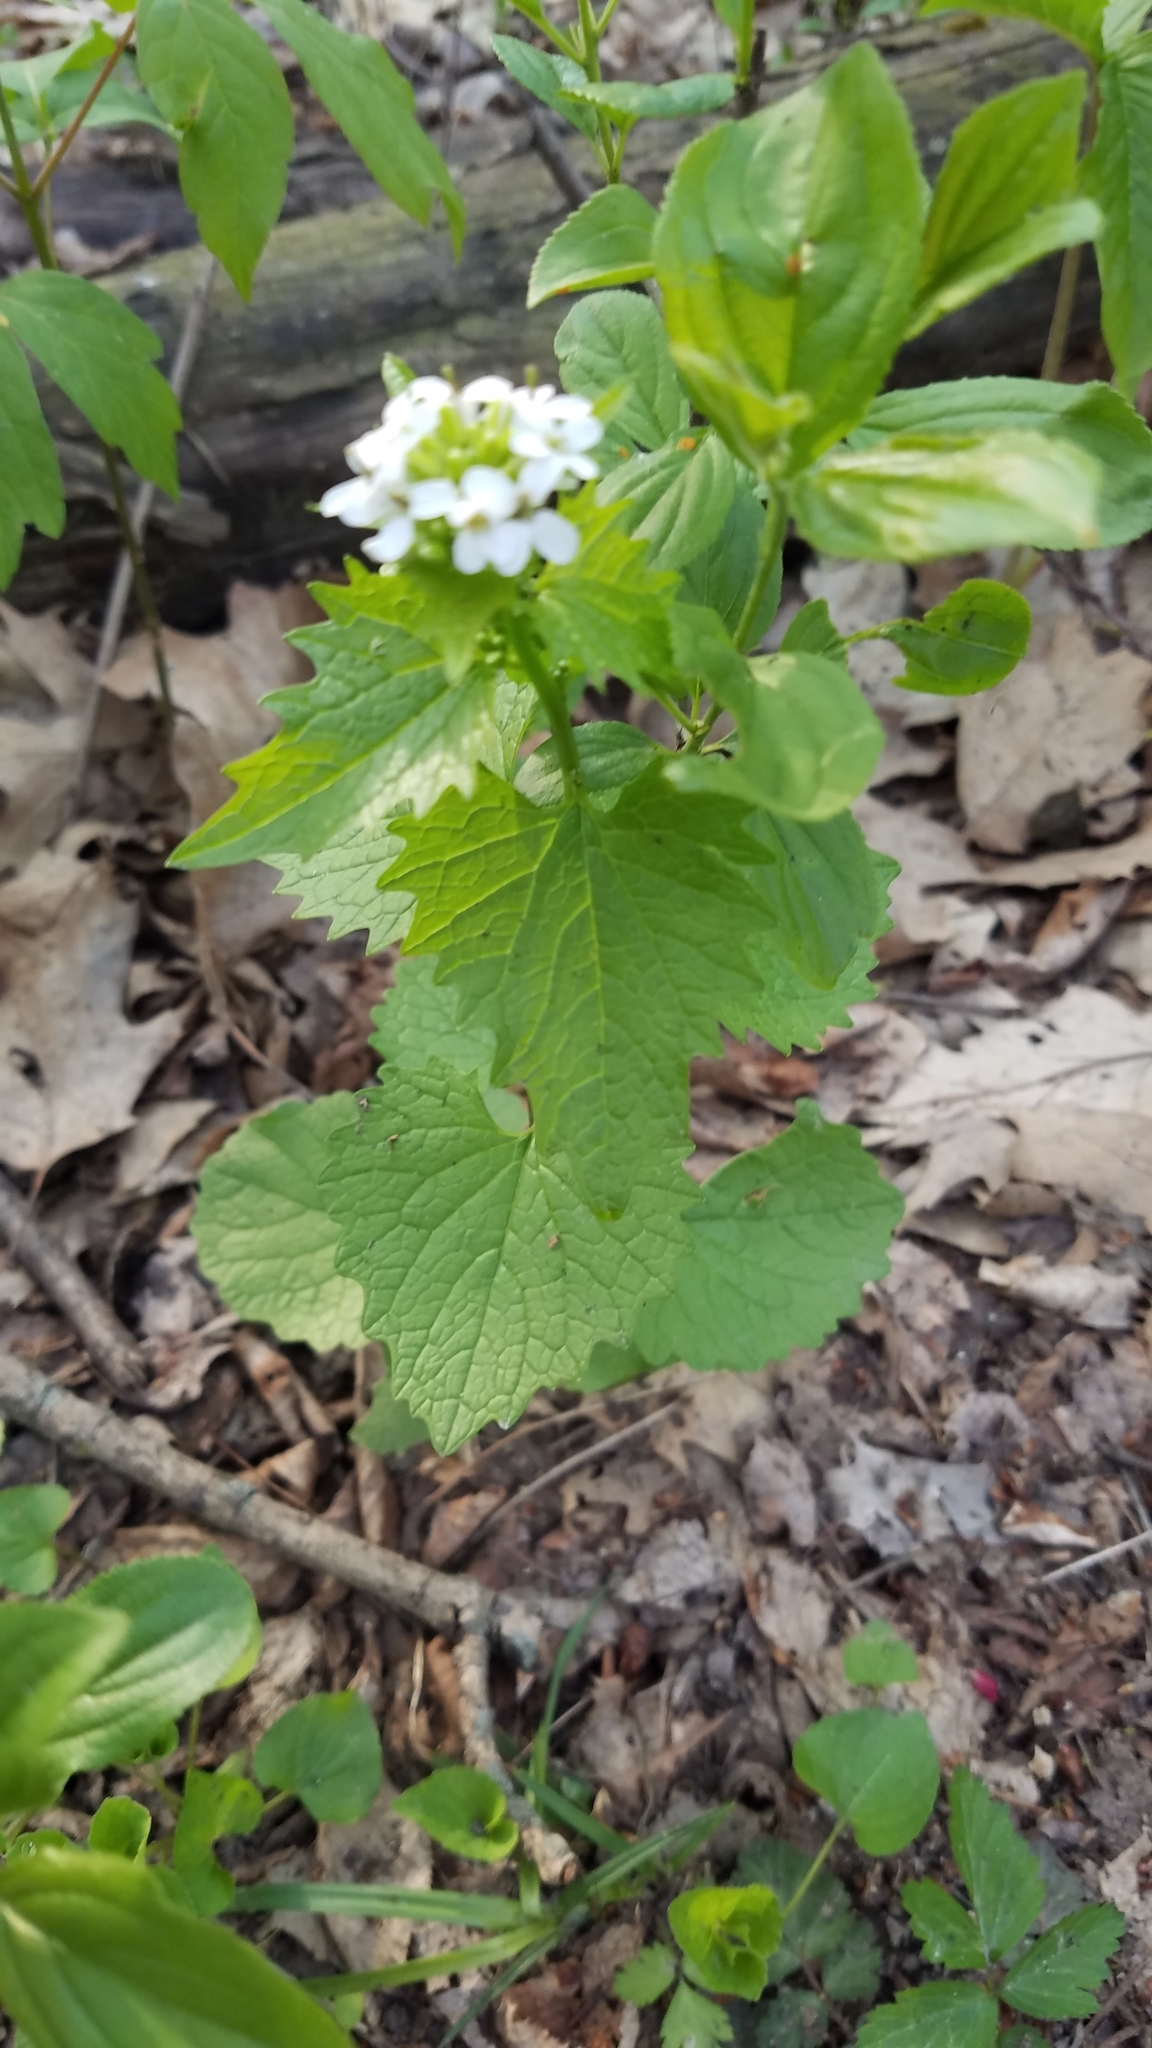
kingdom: Plantae
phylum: Tracheophyta
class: Magnoliopsida
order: Brassicales
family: Brassicaceae
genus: Alliaria
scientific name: Alliaria petiolata
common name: Garlic mustard
